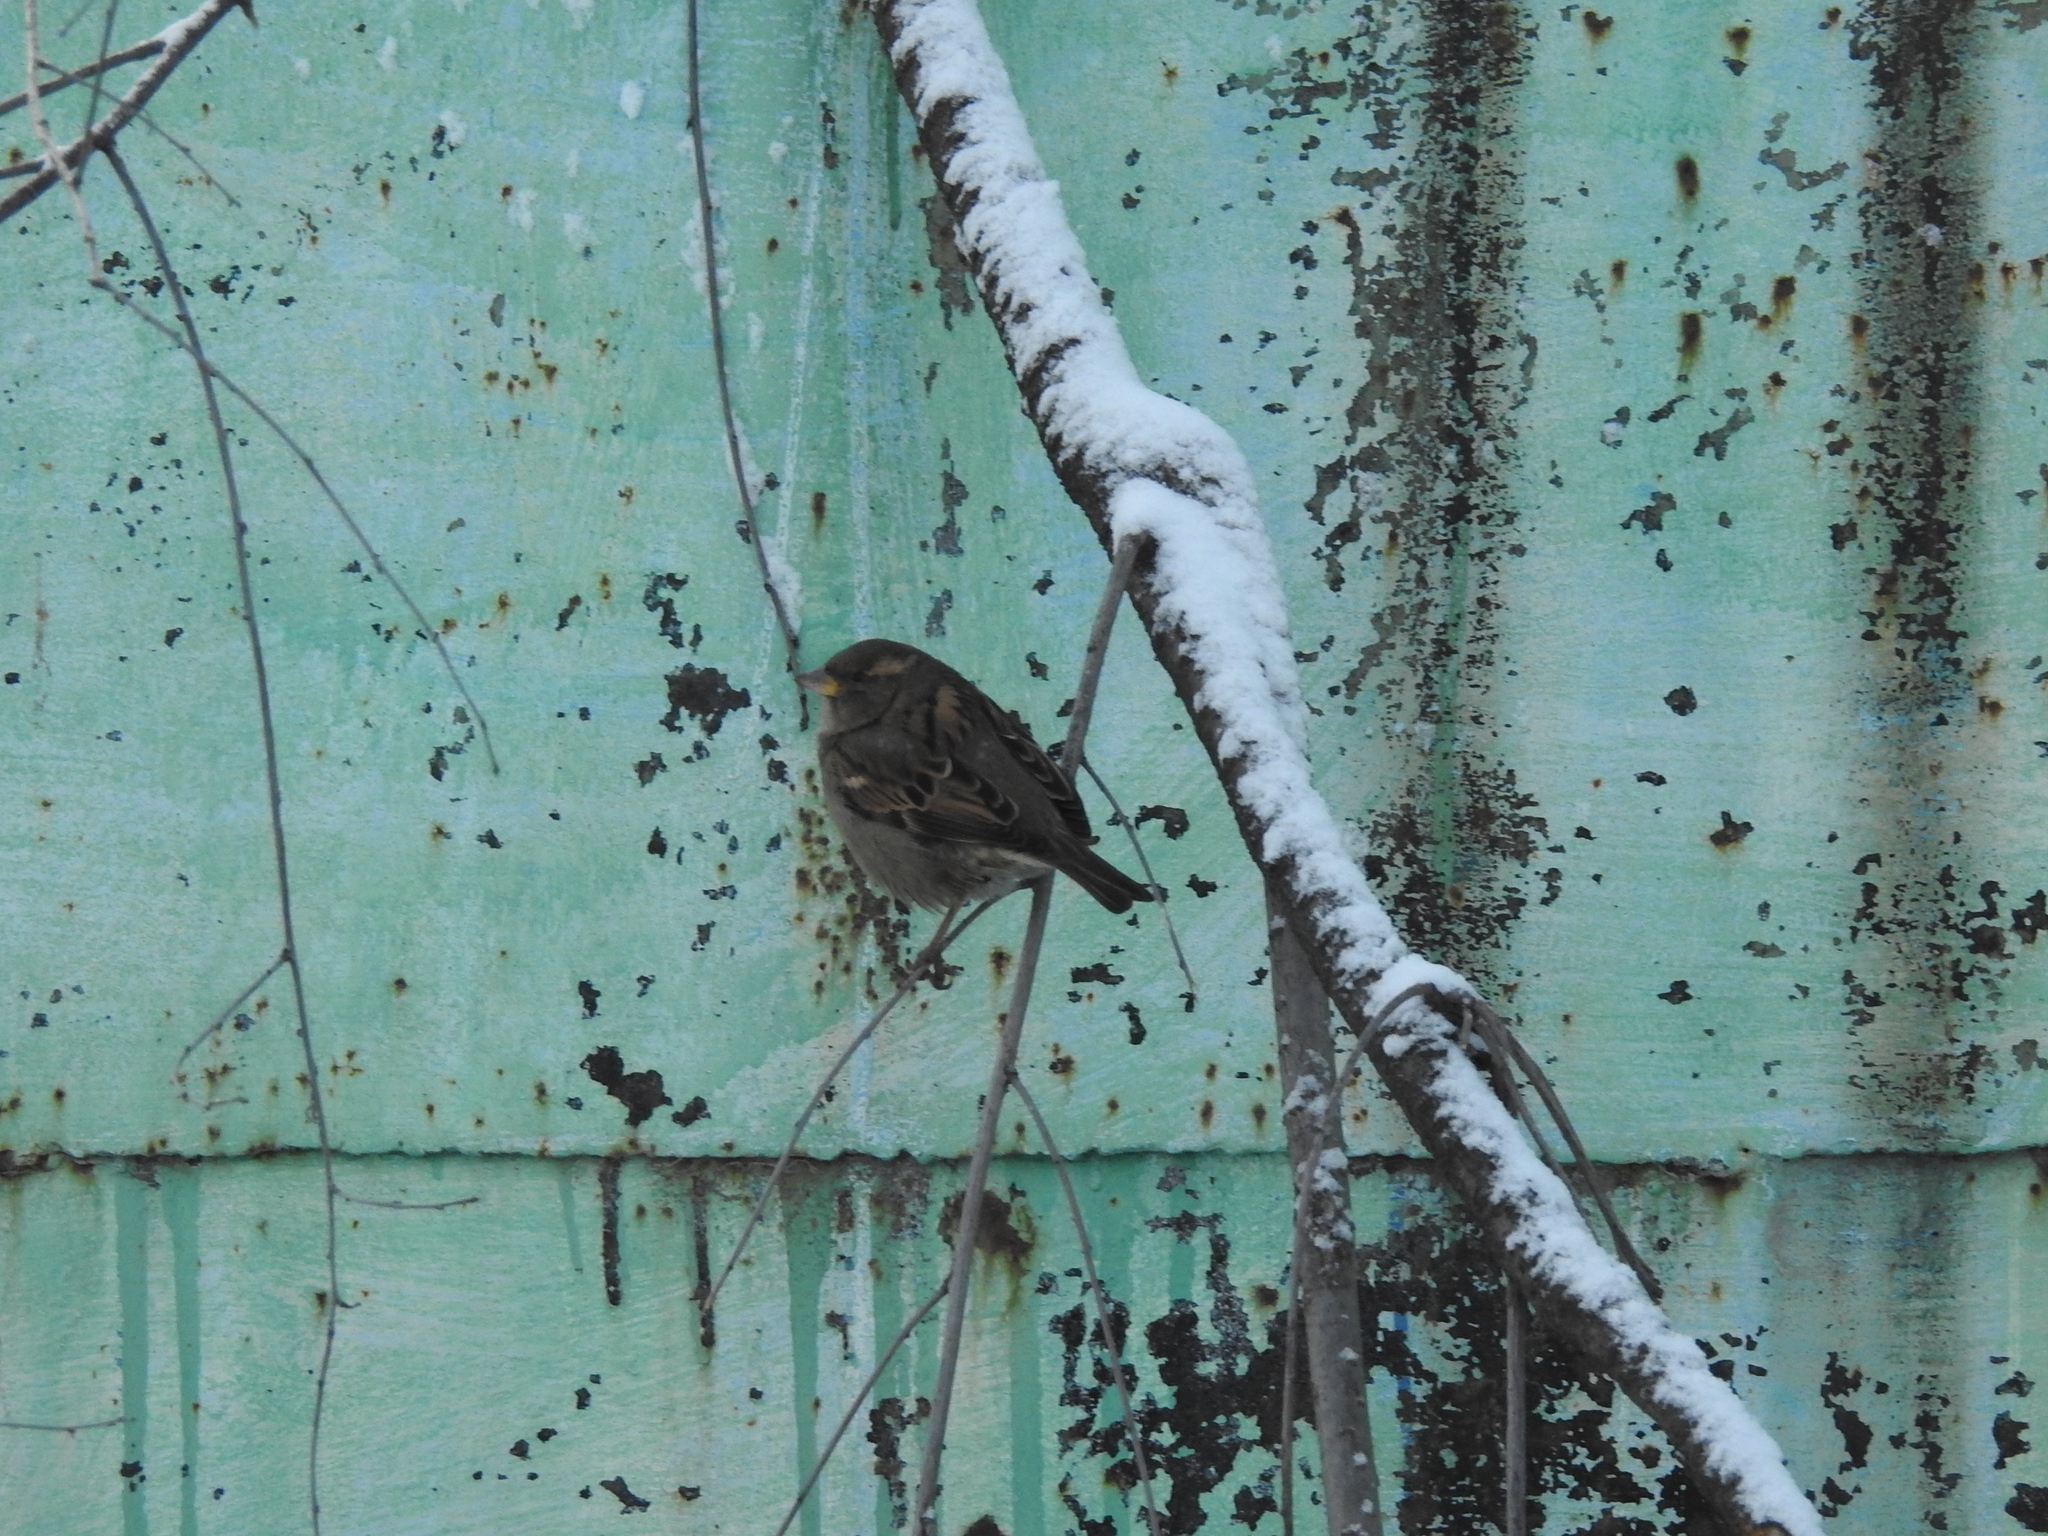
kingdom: Animalia
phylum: Chordata
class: Aves
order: Passeriformes
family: Passeridae
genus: Passer
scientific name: Passer domesticus
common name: House sparrow
